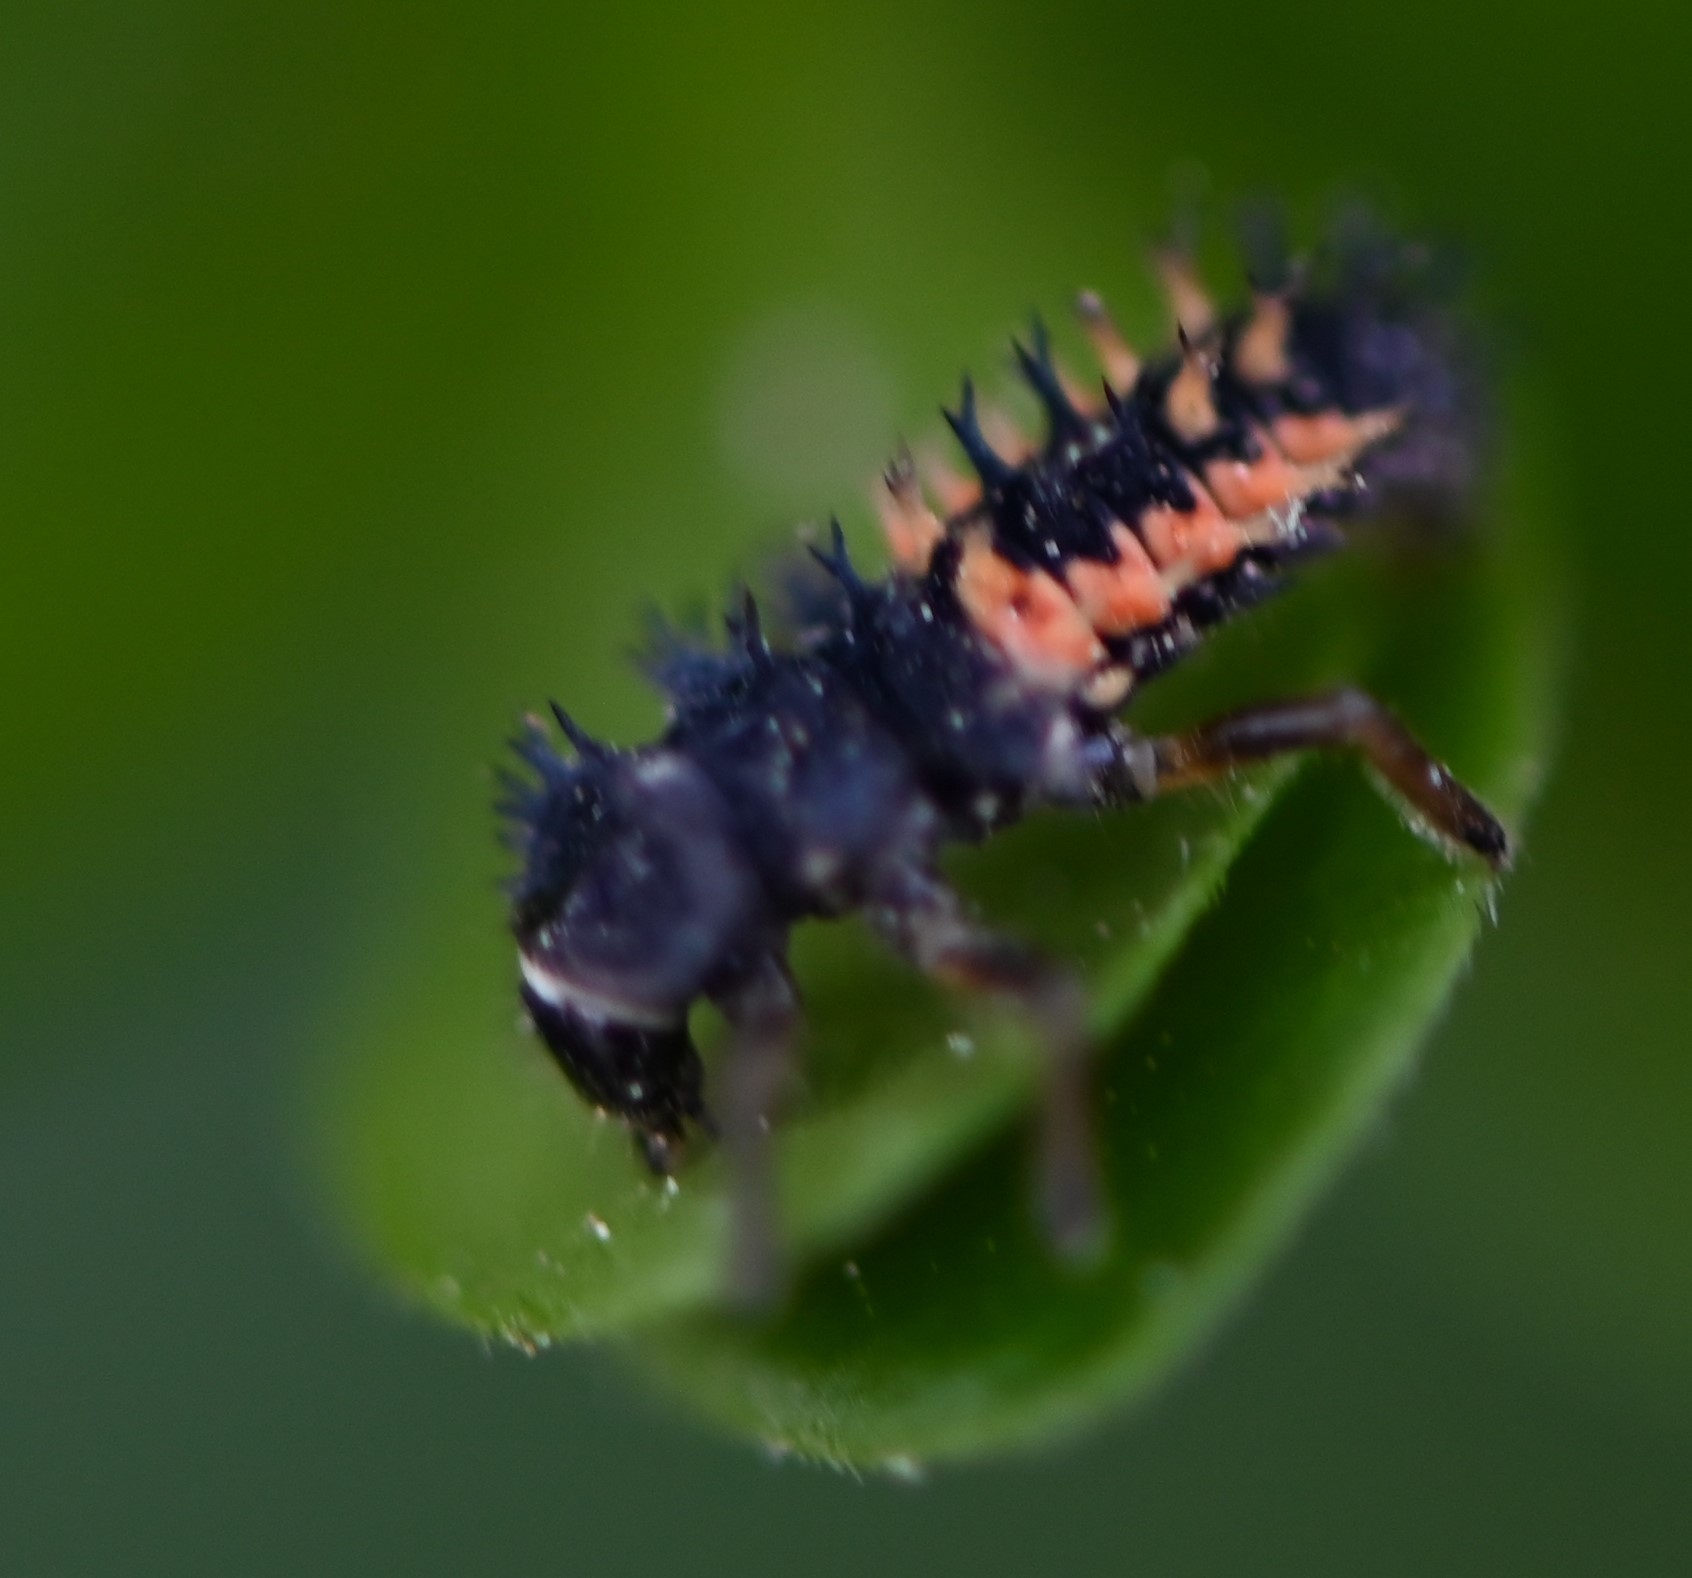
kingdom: Animalia
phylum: Arthropoda
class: Insecta
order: Coleoptera
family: Coccinellidae
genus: Harmonia
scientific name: Harmonia axyridis
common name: Harlequin ladybird
